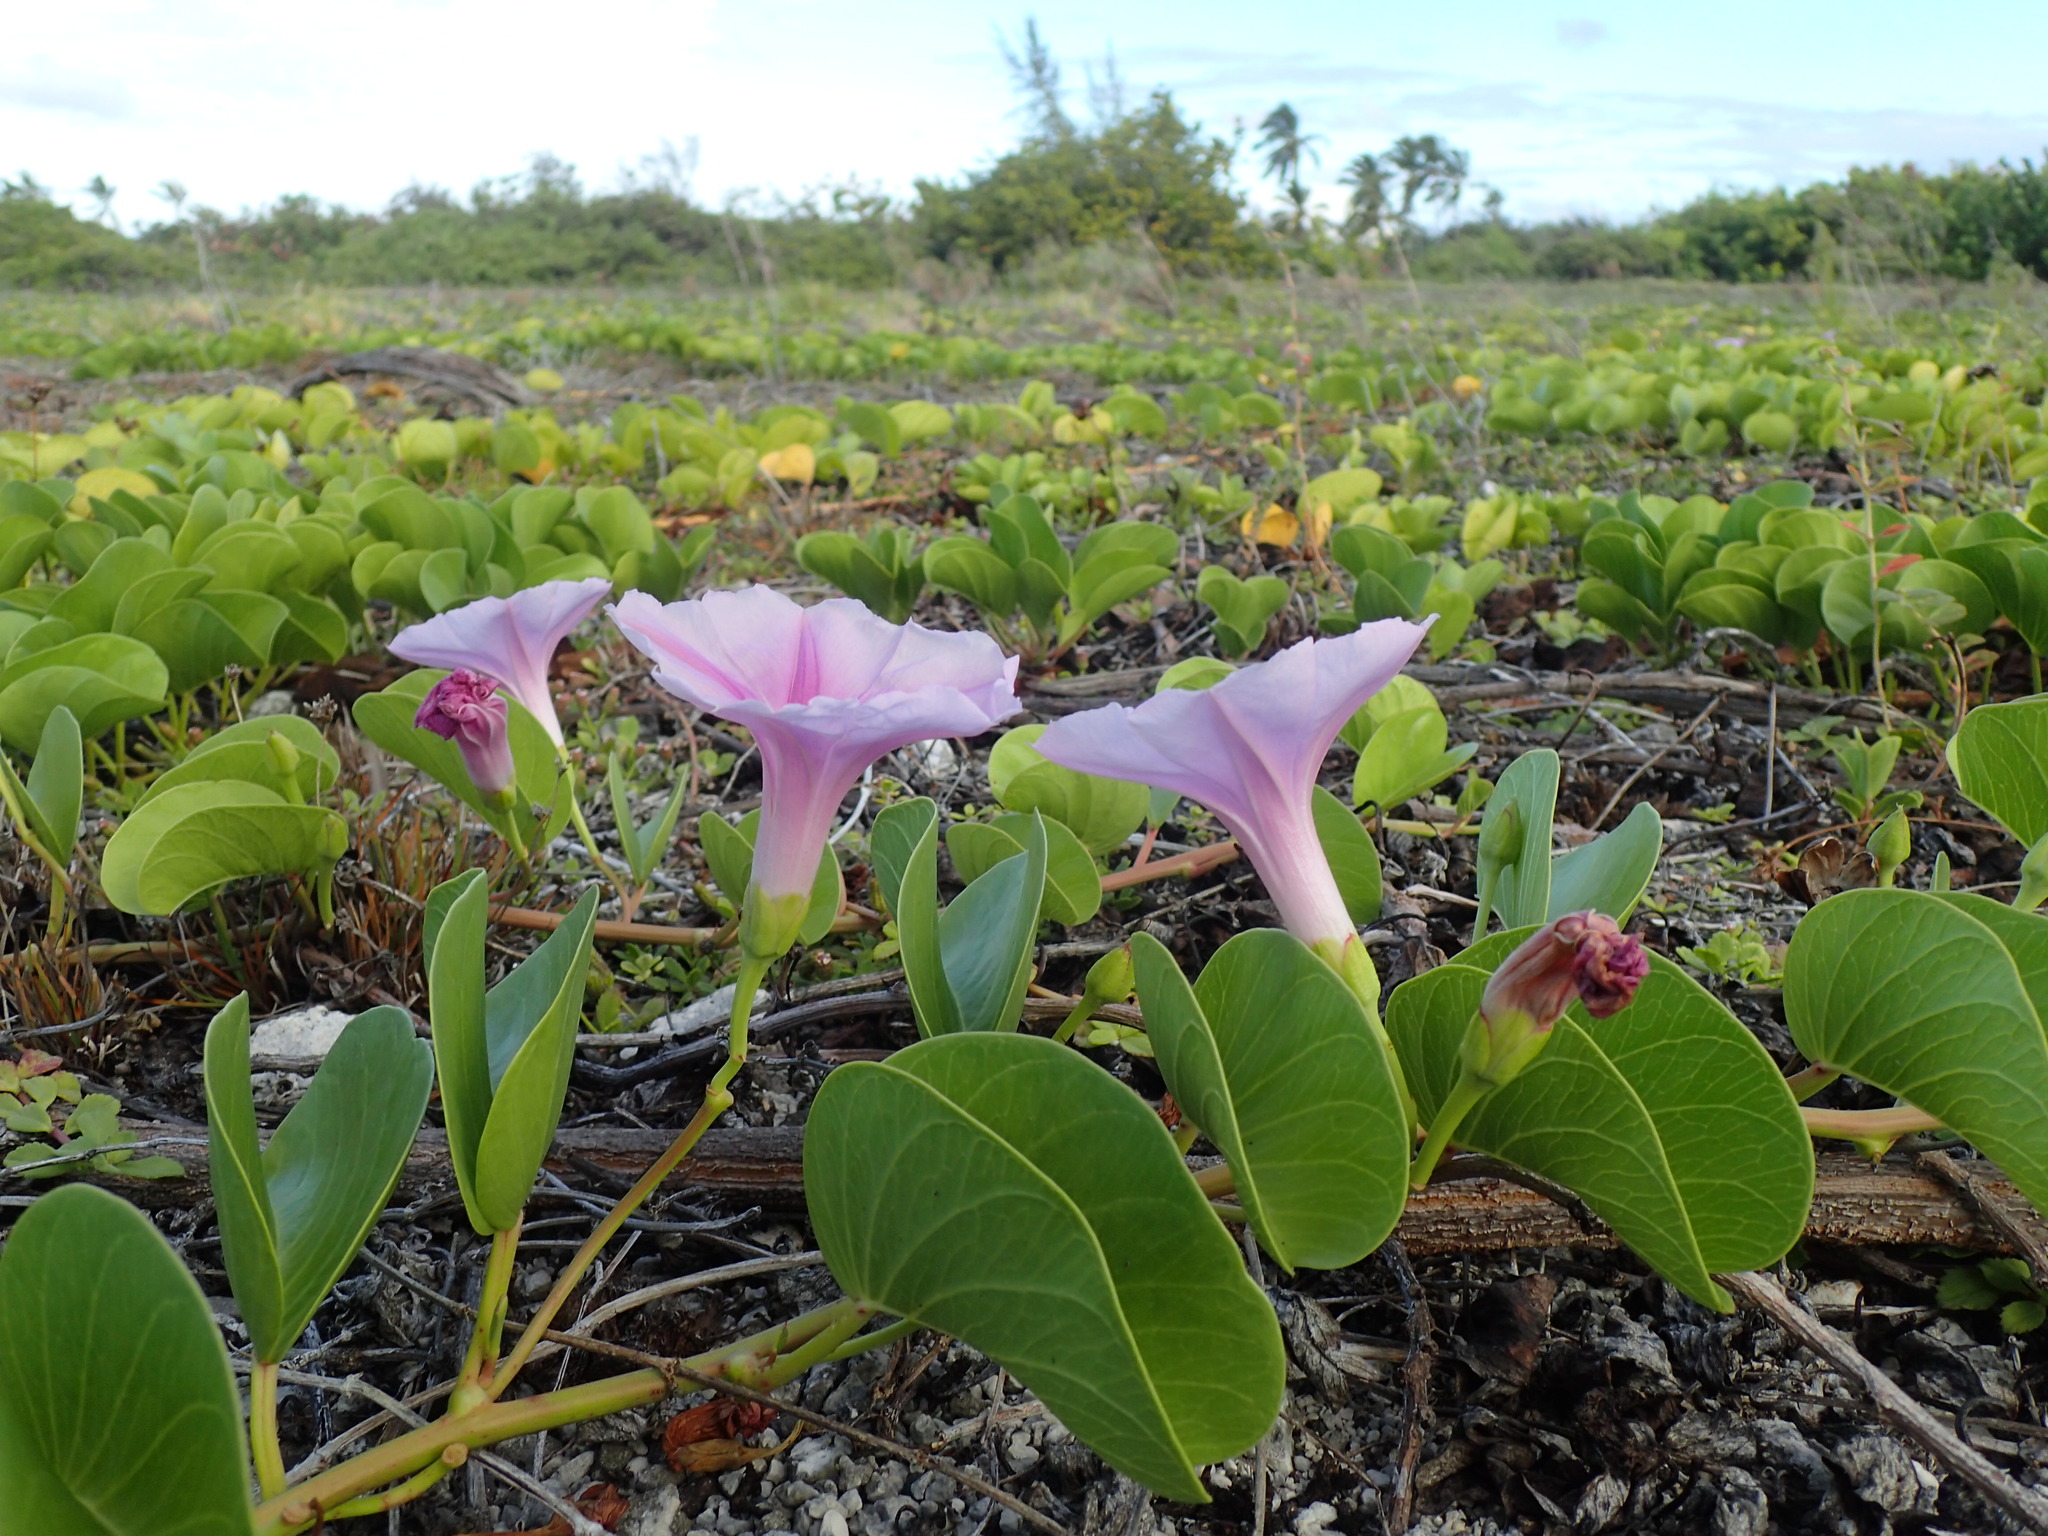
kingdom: Plantae
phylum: Tracheophyta
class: Magnoliopsida
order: Solanales
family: Convolvulaceae
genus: Ipomoea
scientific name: Ipomoea pes-caprae
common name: Beach morning glory
